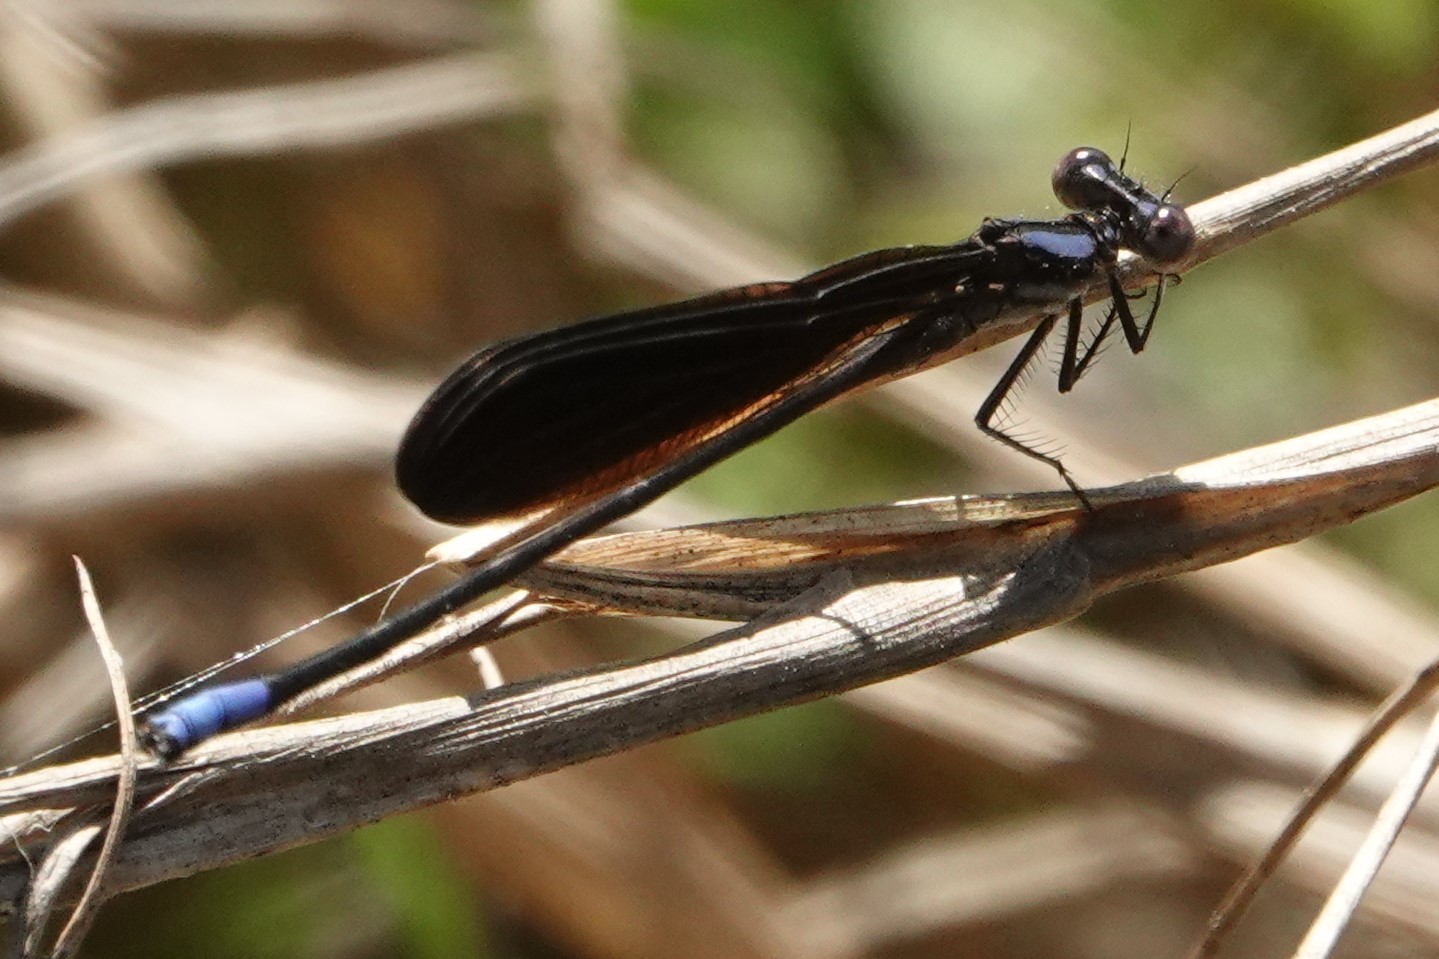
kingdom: Animalia
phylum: Arthropoda
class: Insecta
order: Odonata
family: Coenagrionidae
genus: Argia
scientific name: Argia fumipennis
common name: Variable dancer
